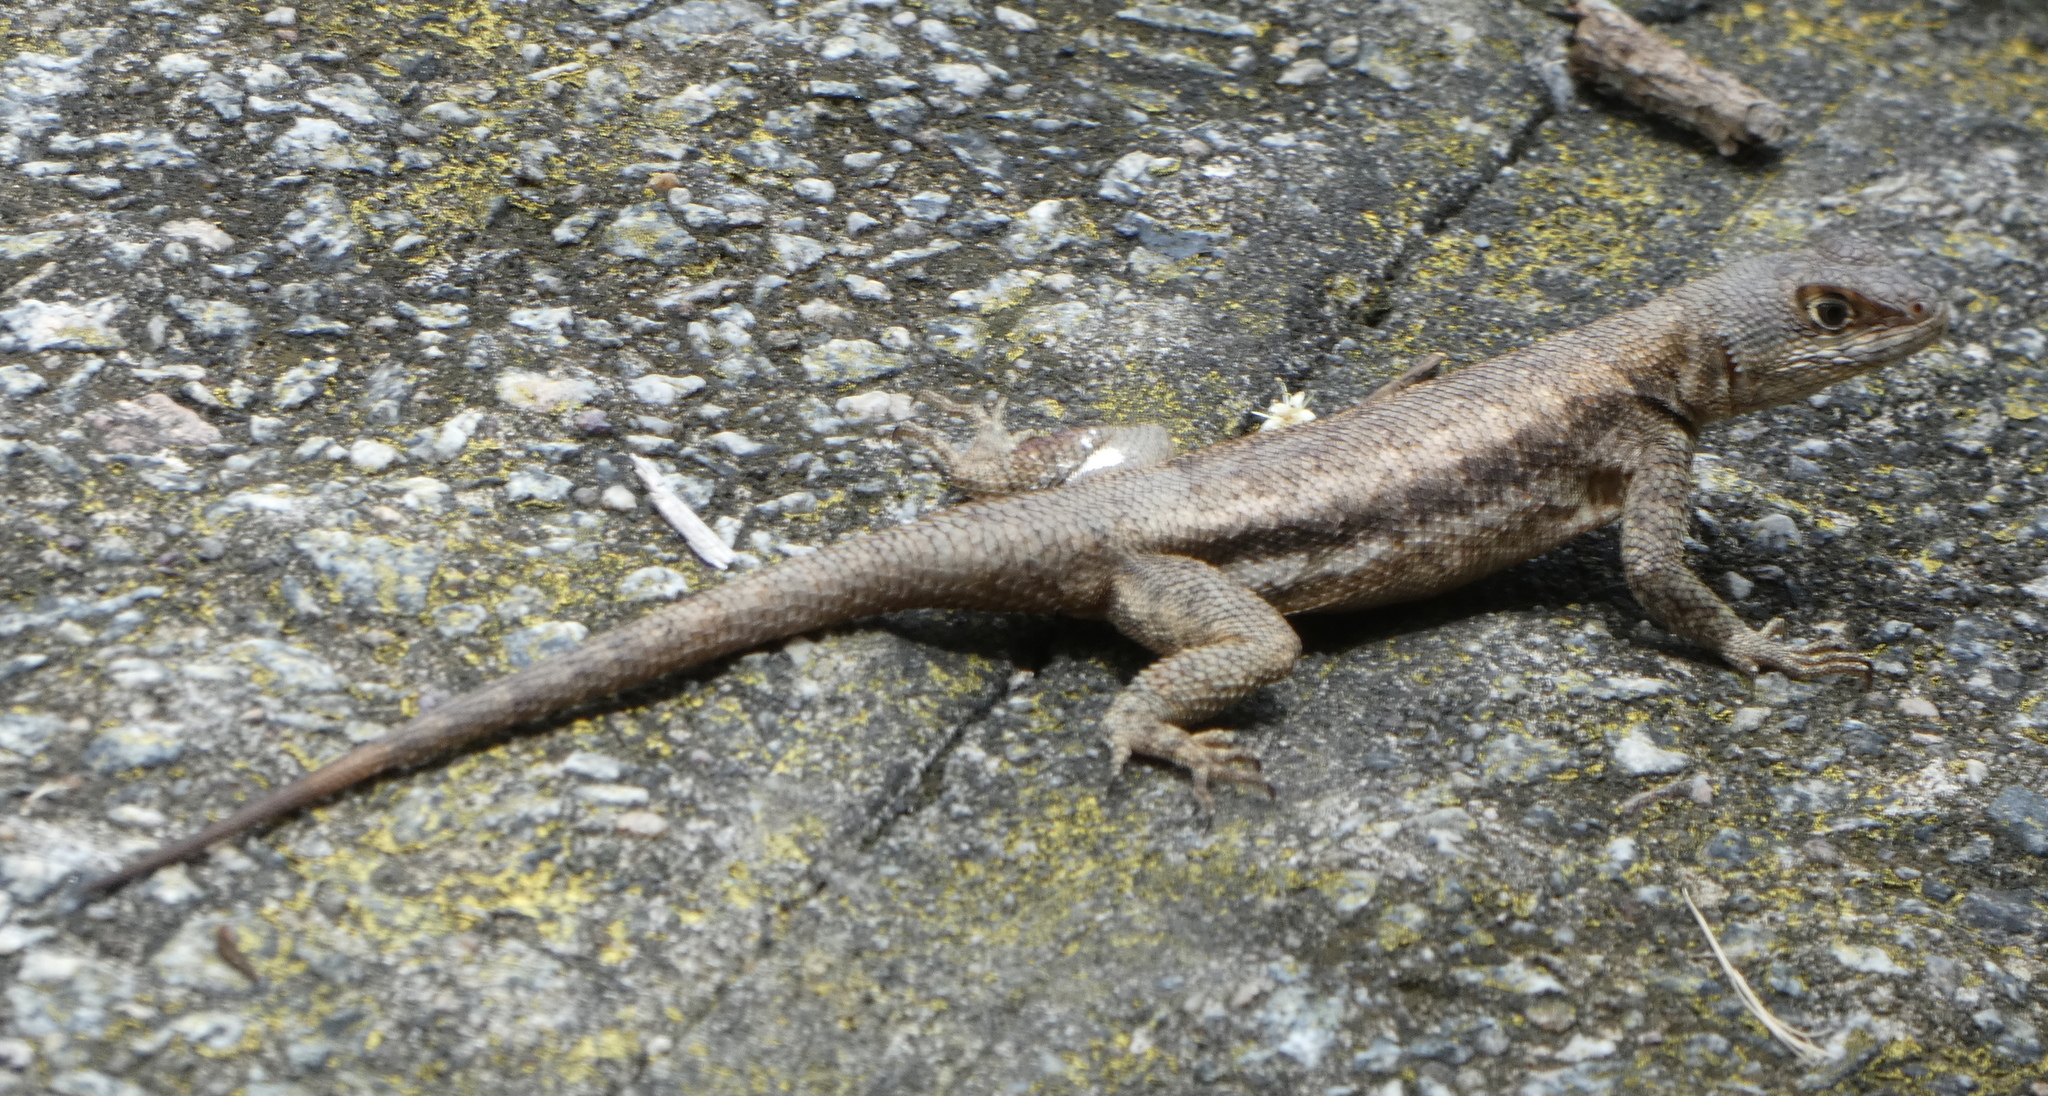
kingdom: Animalia
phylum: Chordata
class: Squamata
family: Tropiduridae
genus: Tropidurus
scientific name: Tropidurus hispidus
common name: Peters' lava lizard
